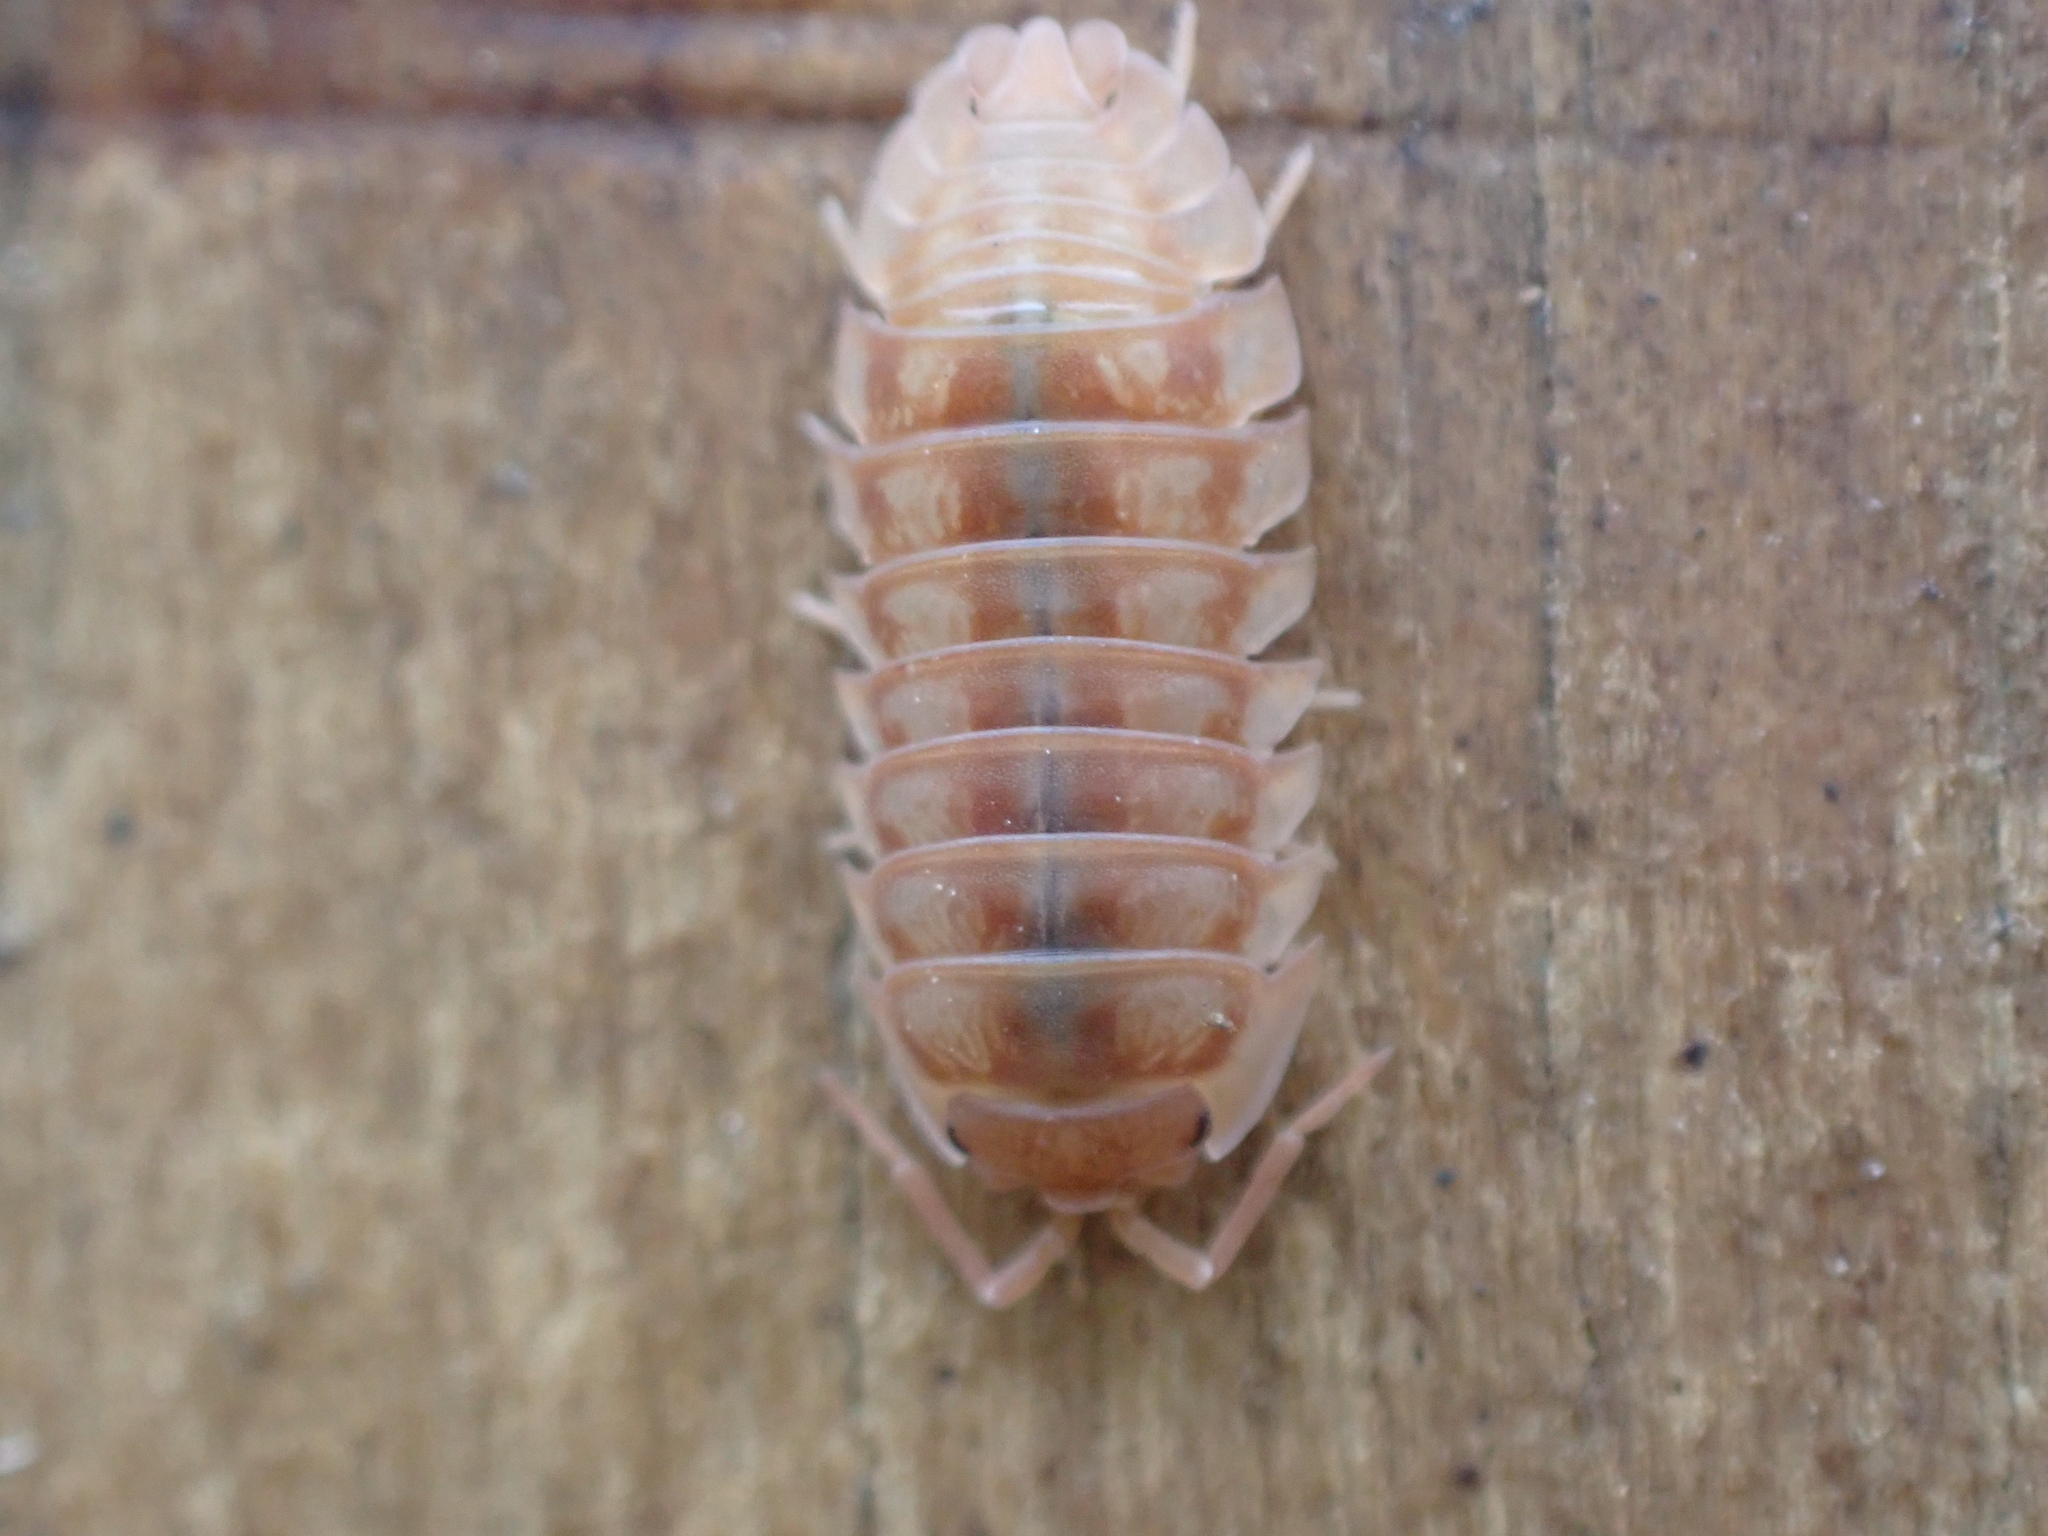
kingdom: Animalia
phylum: Arthropoda
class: Malacostraca
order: Isopoda
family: Armadillidiidae
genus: Armadillidium
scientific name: Armadillidium nasatum
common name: Isopod
